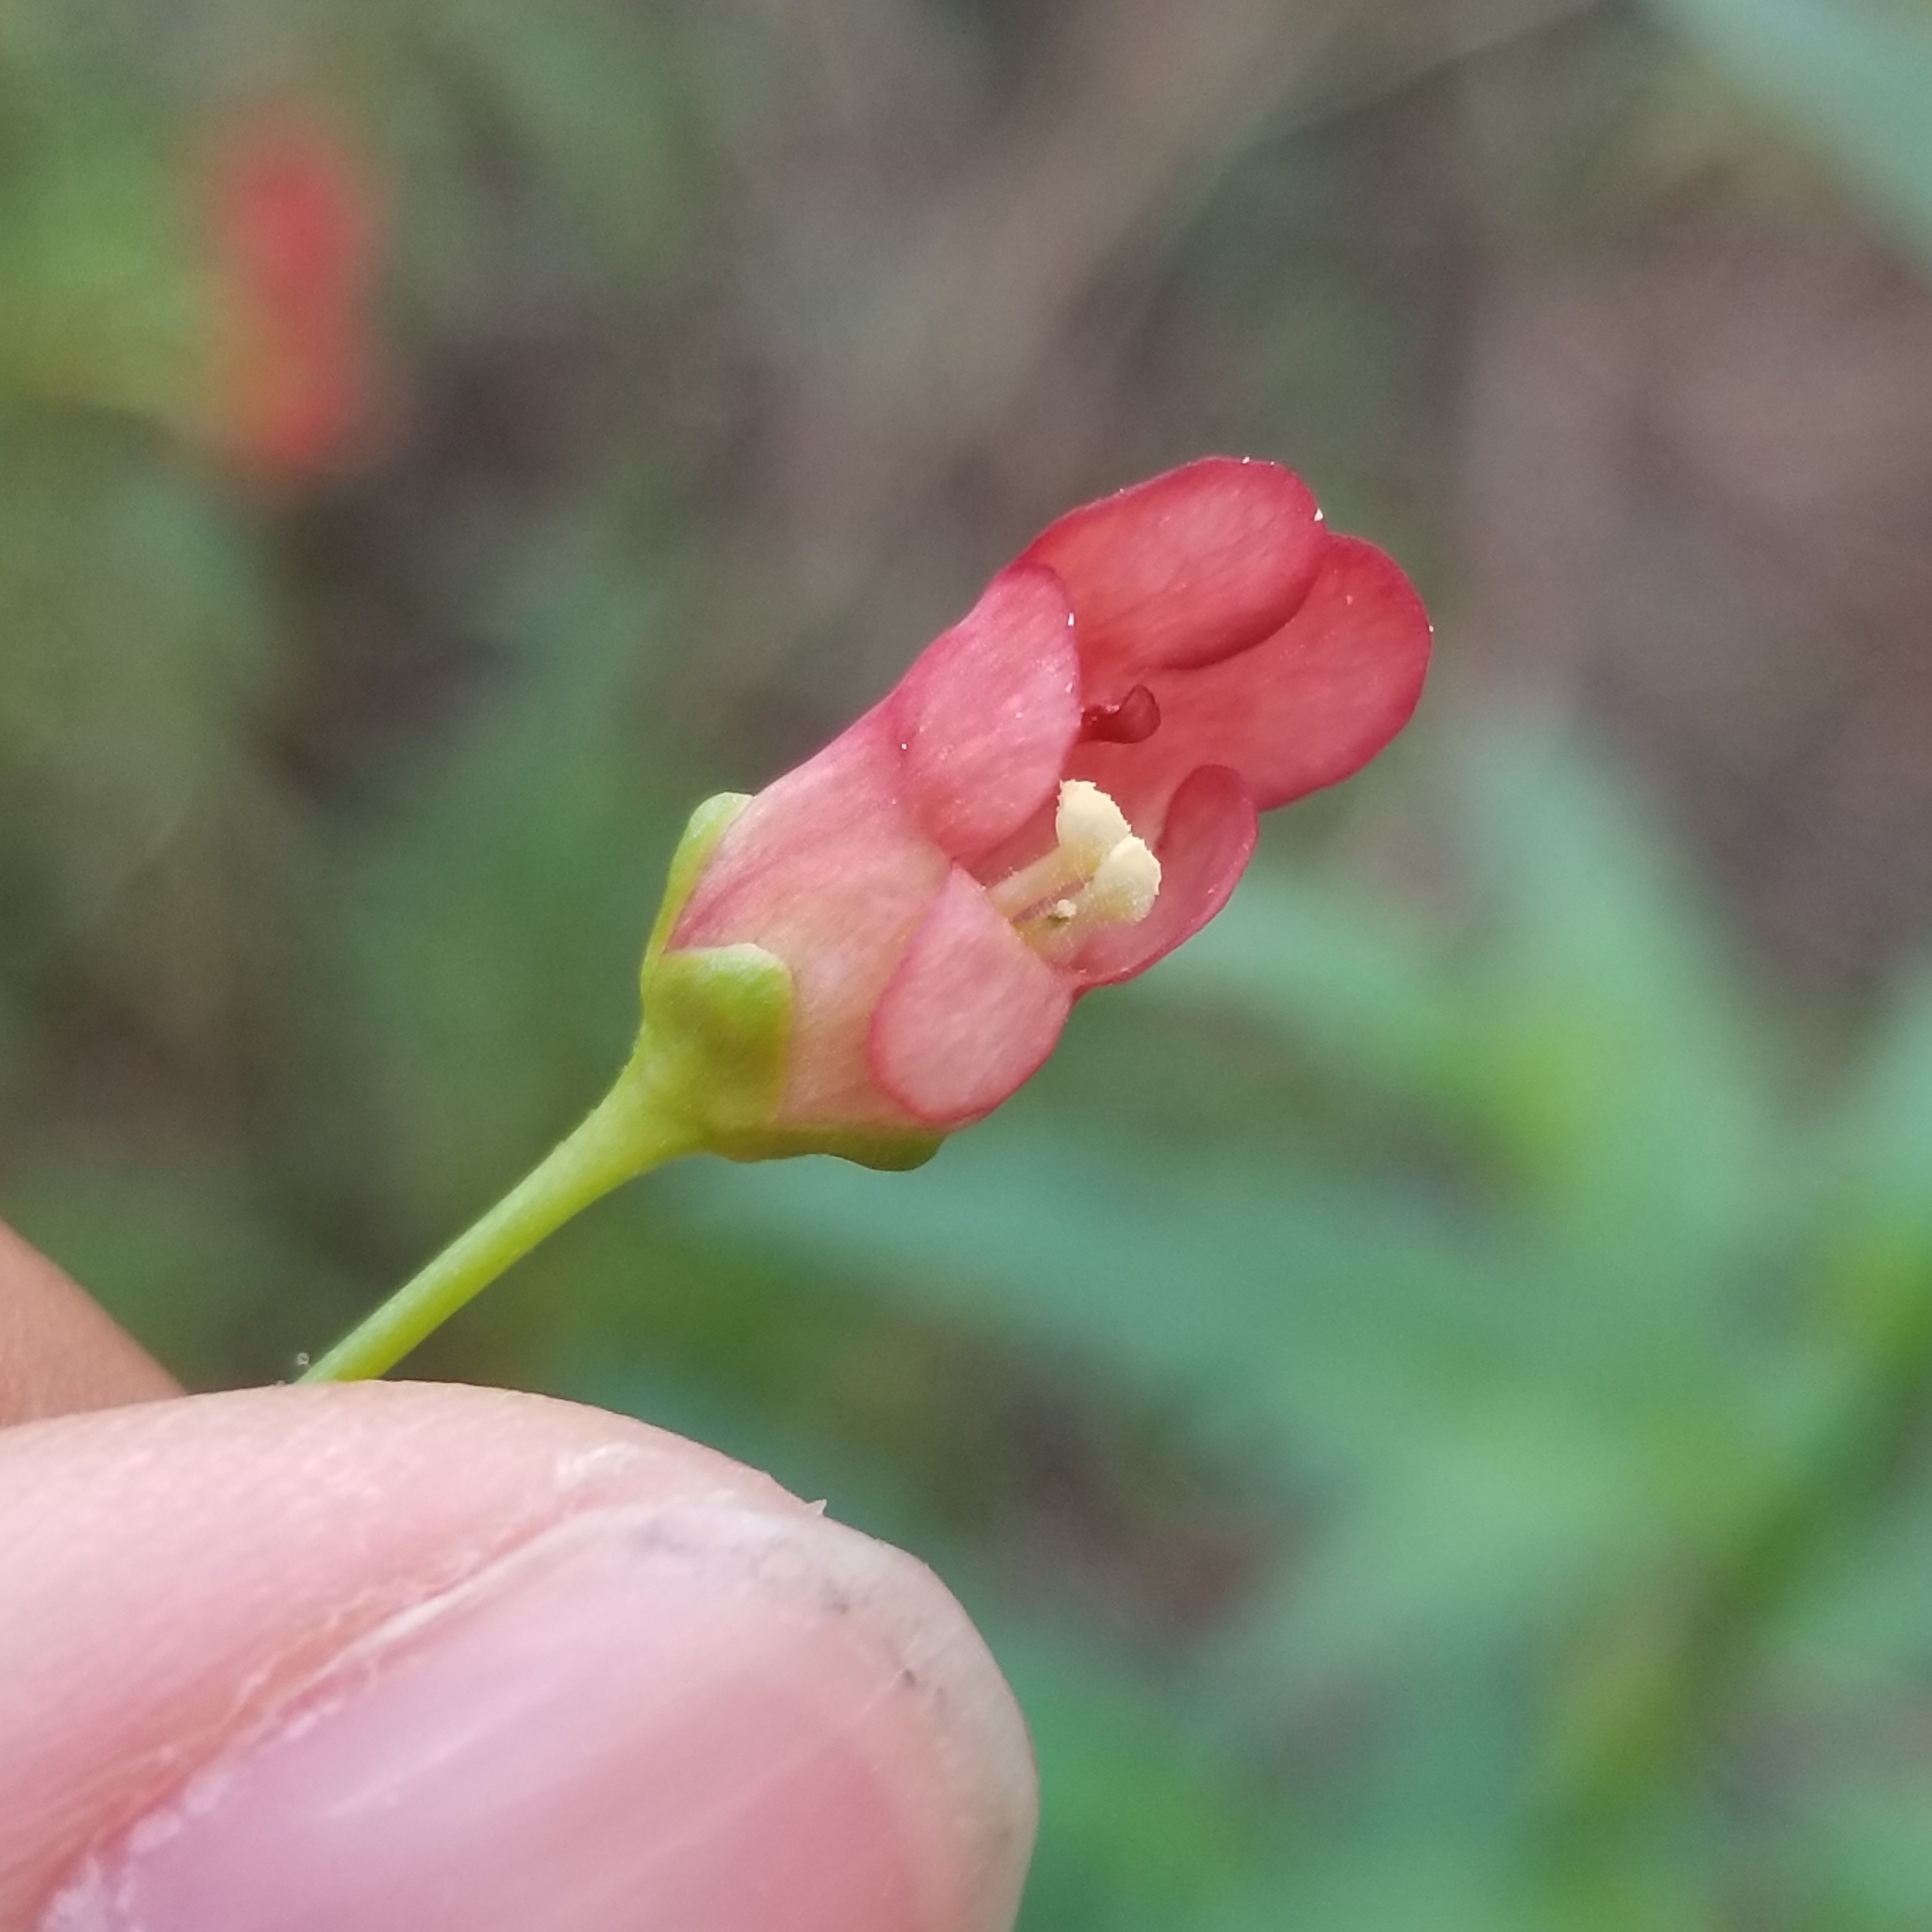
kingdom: Plantae
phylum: Tracheophyta
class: Magnoliopsida
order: Lamiales
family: Scrophulariaceae
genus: Scrophularia
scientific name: Scrophularia californica
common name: California figwort
